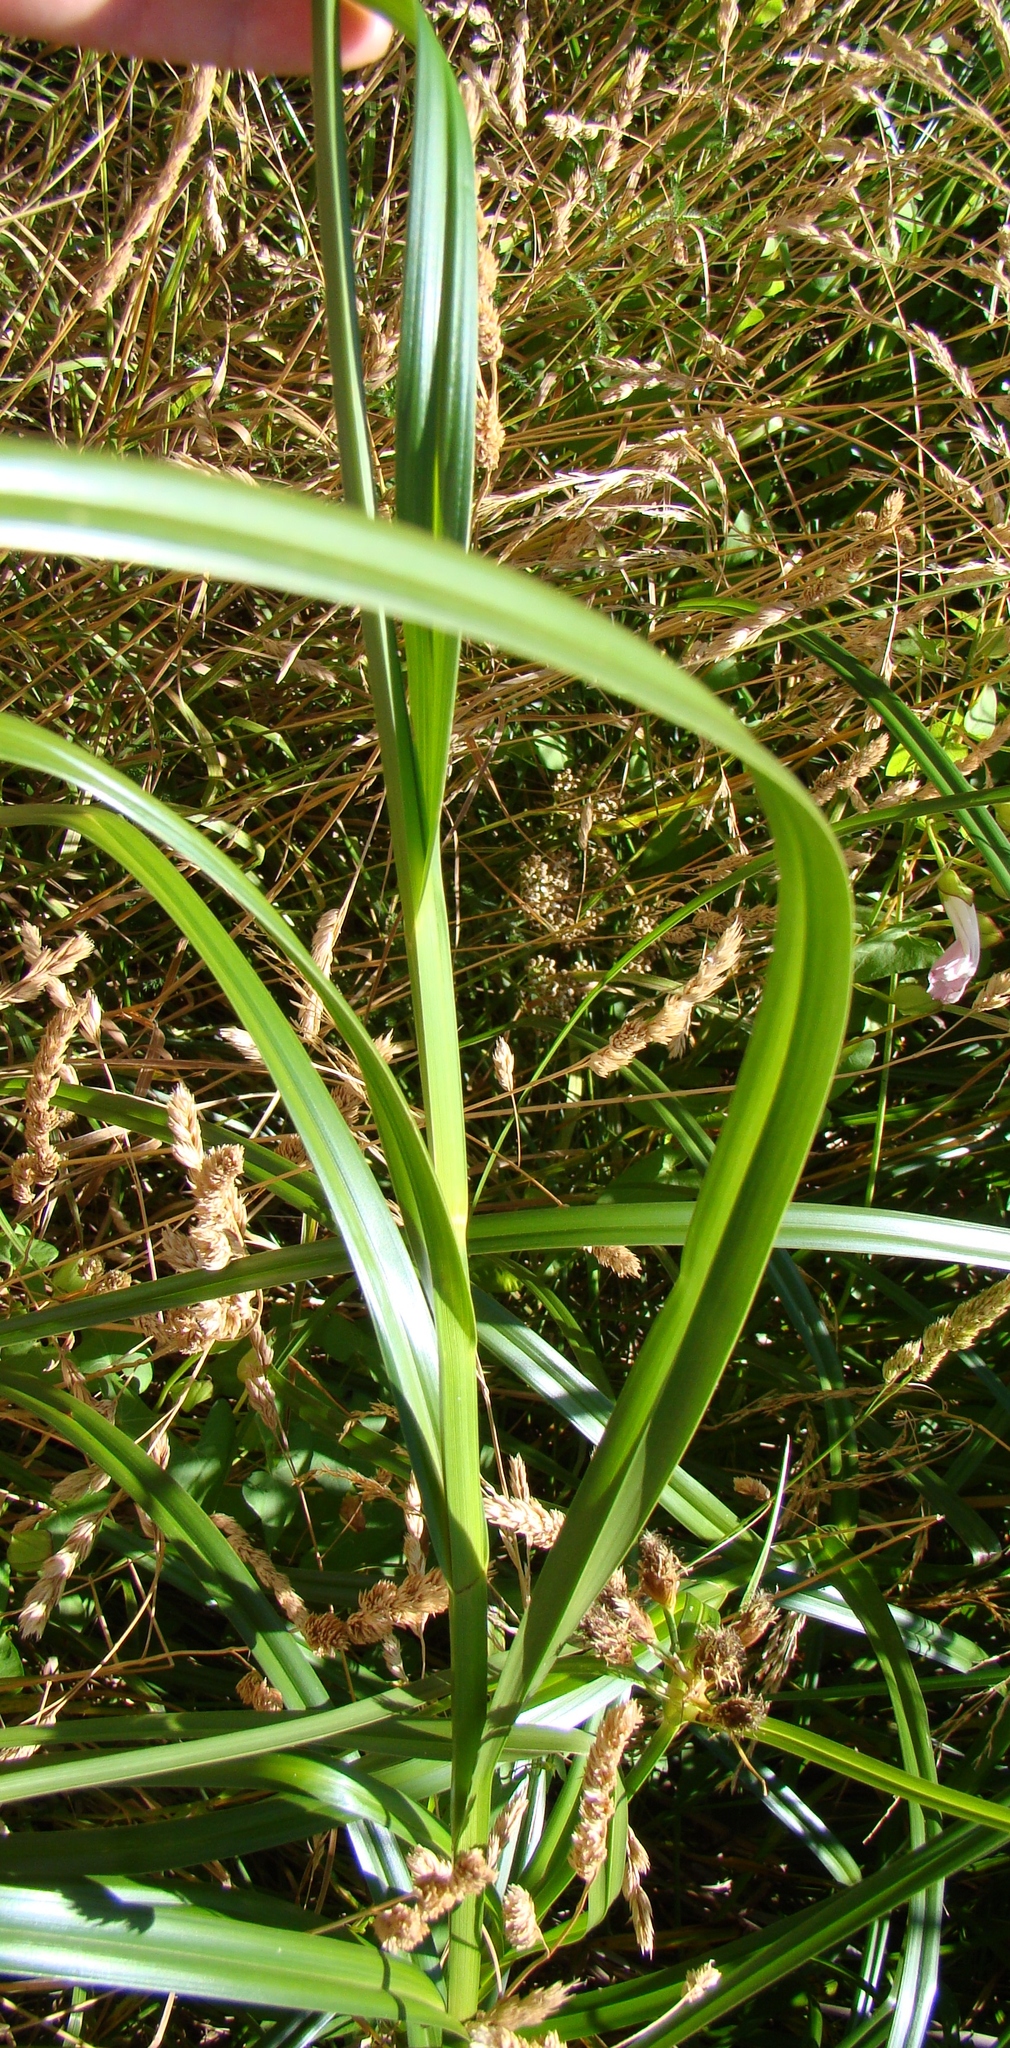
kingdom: Plantae
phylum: Tracheophyta
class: Liliopsida
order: Poales
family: Cyperaceae
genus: Bolboschoenus
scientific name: Bolboschoenus fluviatilis
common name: River bulrush
